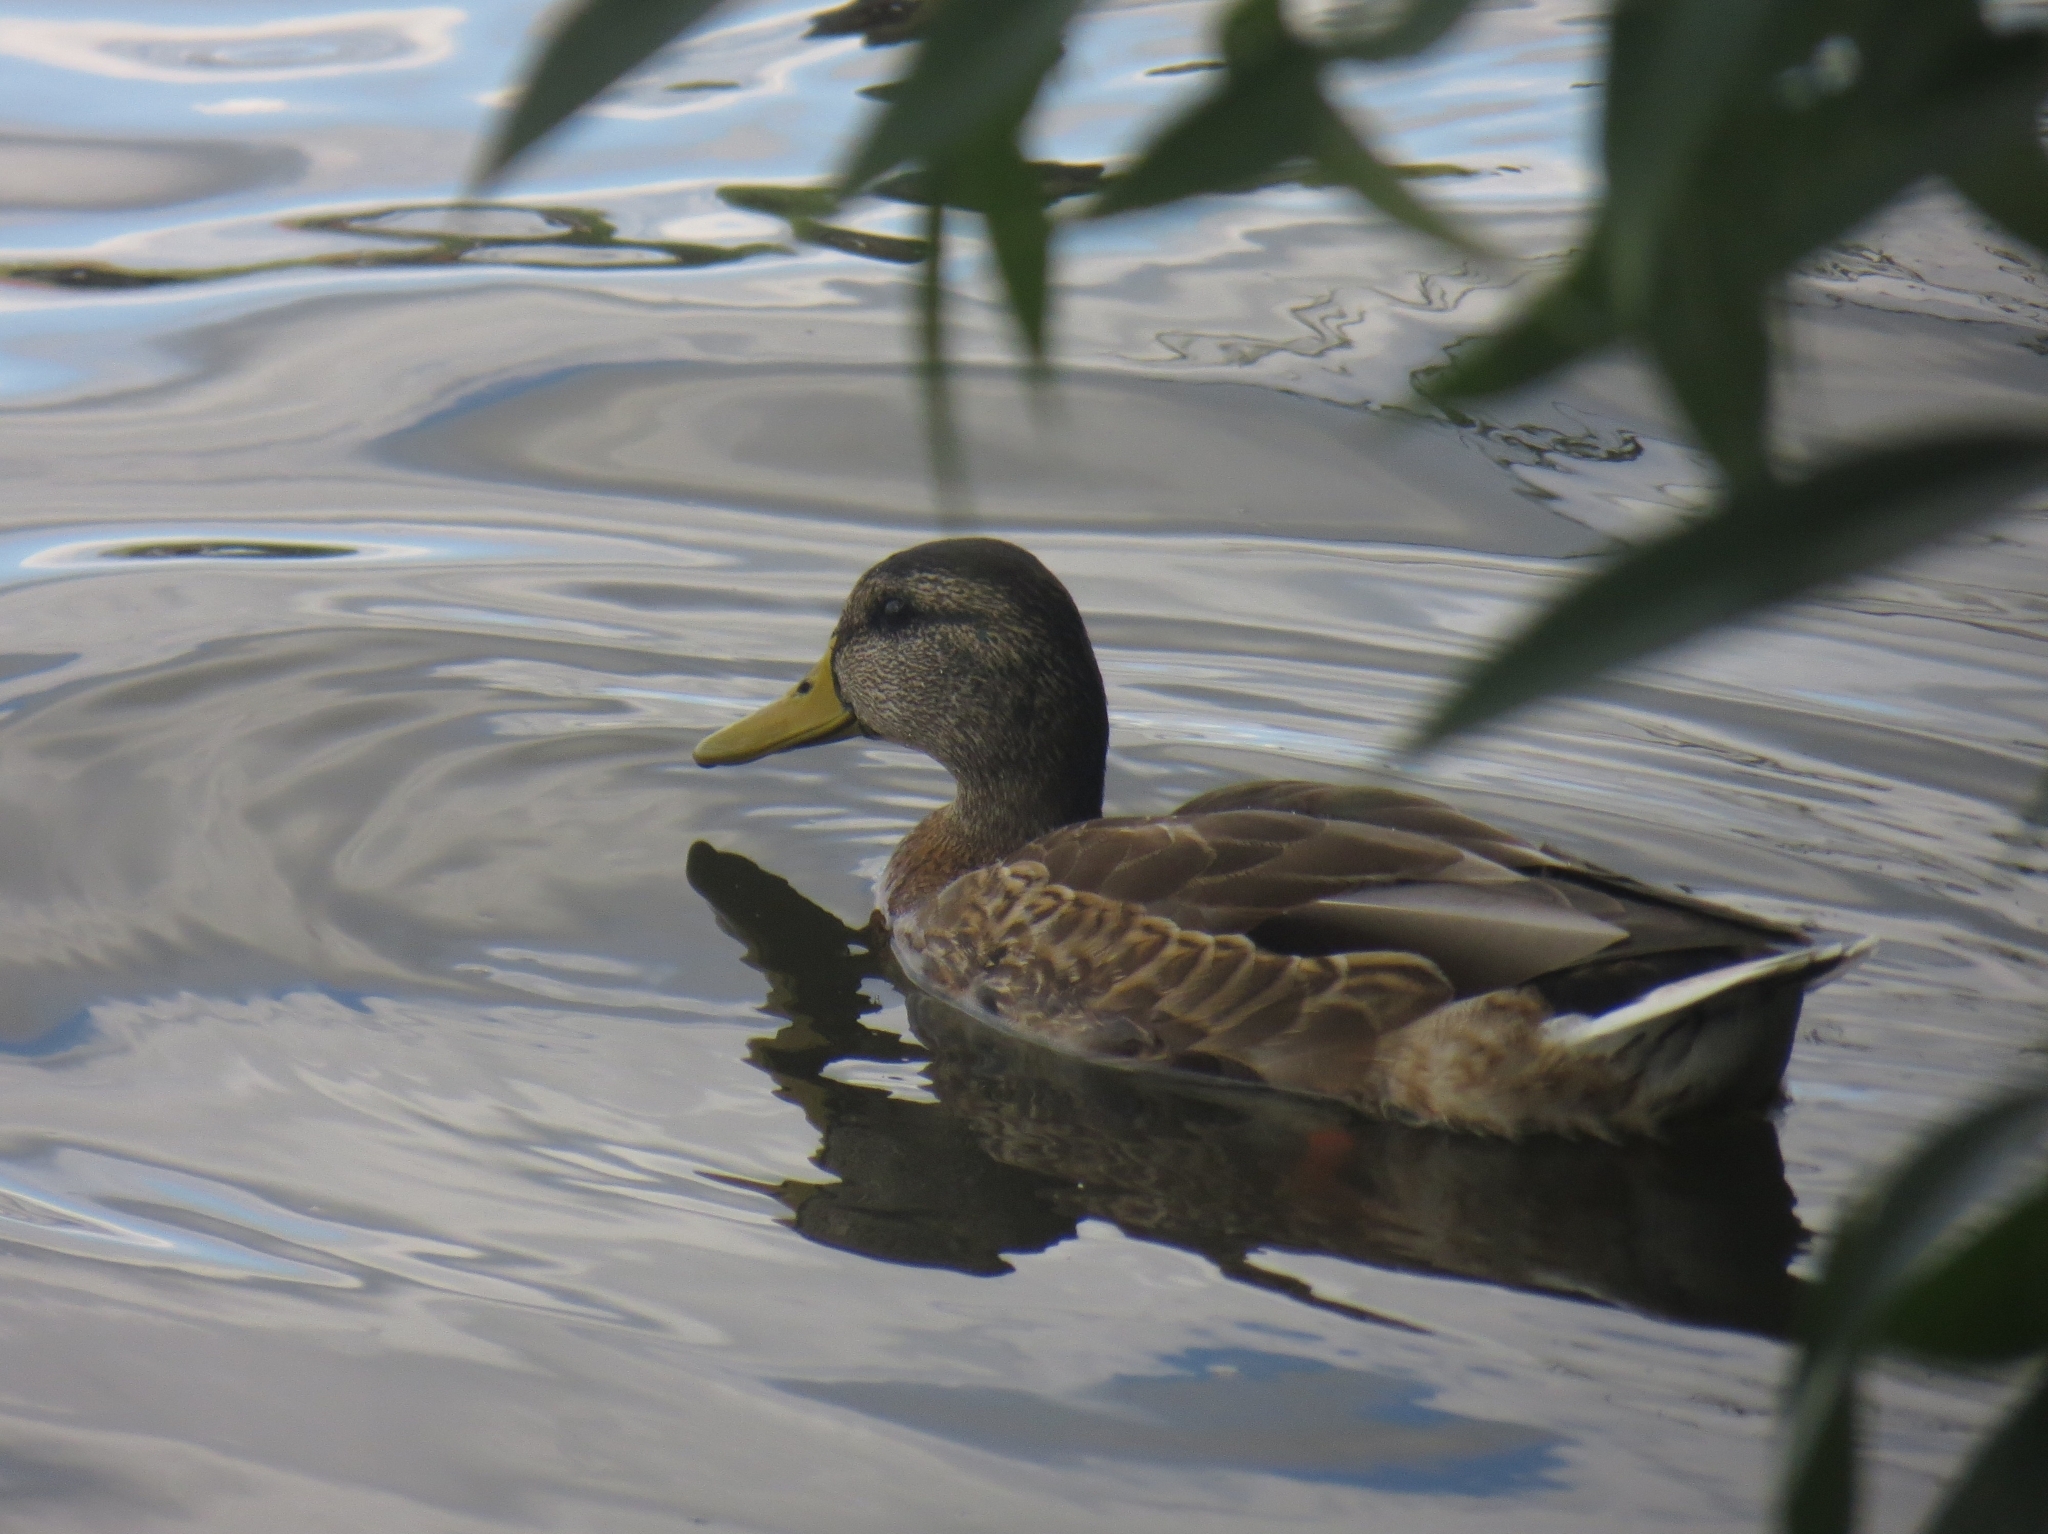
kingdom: Animalia
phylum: Chordata
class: Aves
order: Anseriformes
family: Anatidae
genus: Anas
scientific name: Anas platyrhynchos
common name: Mallard
